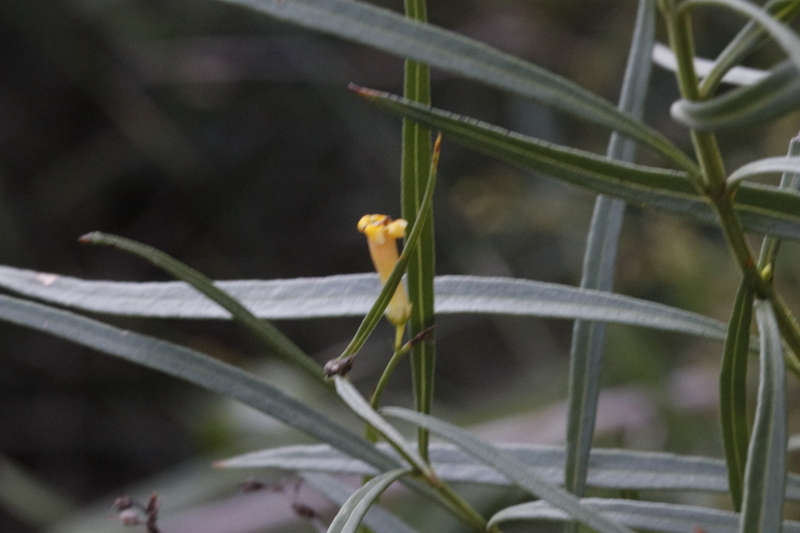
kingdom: Plantae
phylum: Tracheophyta
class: Magnoliopsida
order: Lamiales
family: Scrophulariaceae
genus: Freylinia
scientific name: Freylinia lanceolata
